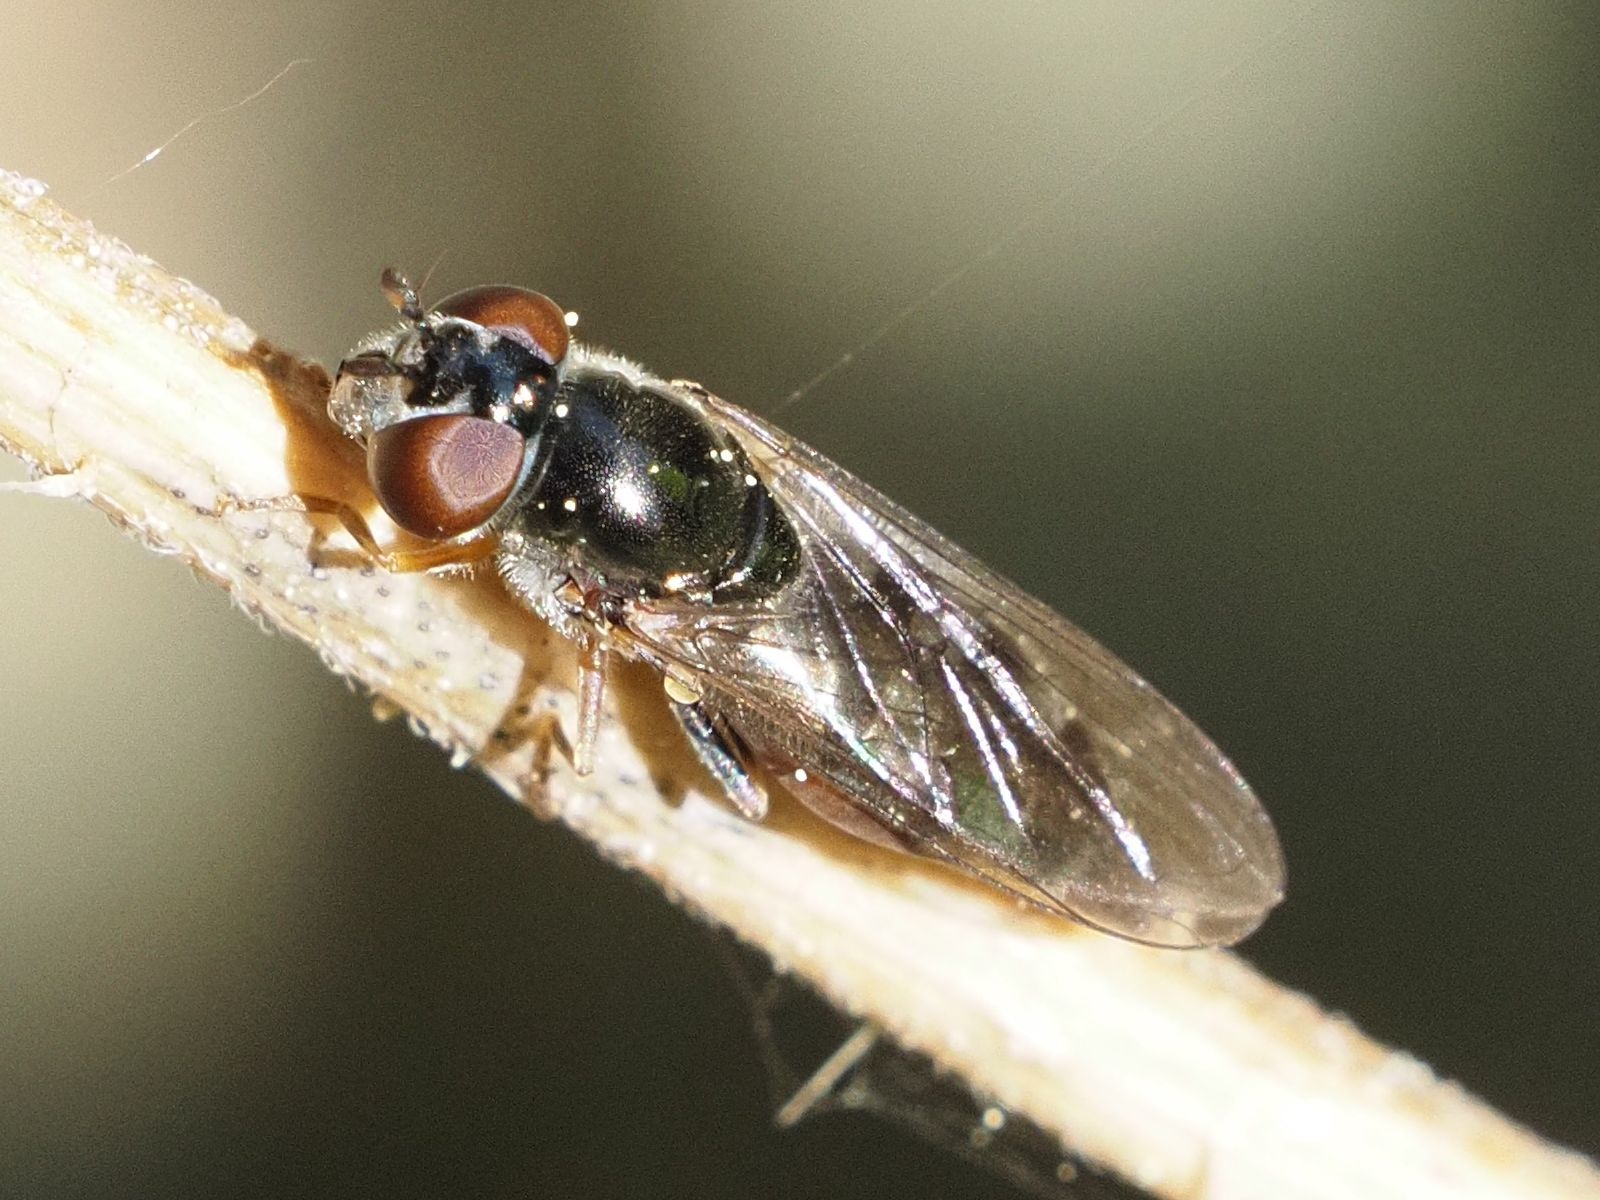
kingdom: Animalia
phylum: Arthropoda
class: Insecta
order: Diptera
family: Syrphidae
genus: Platycheirus
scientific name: Platycheirus albimanus
